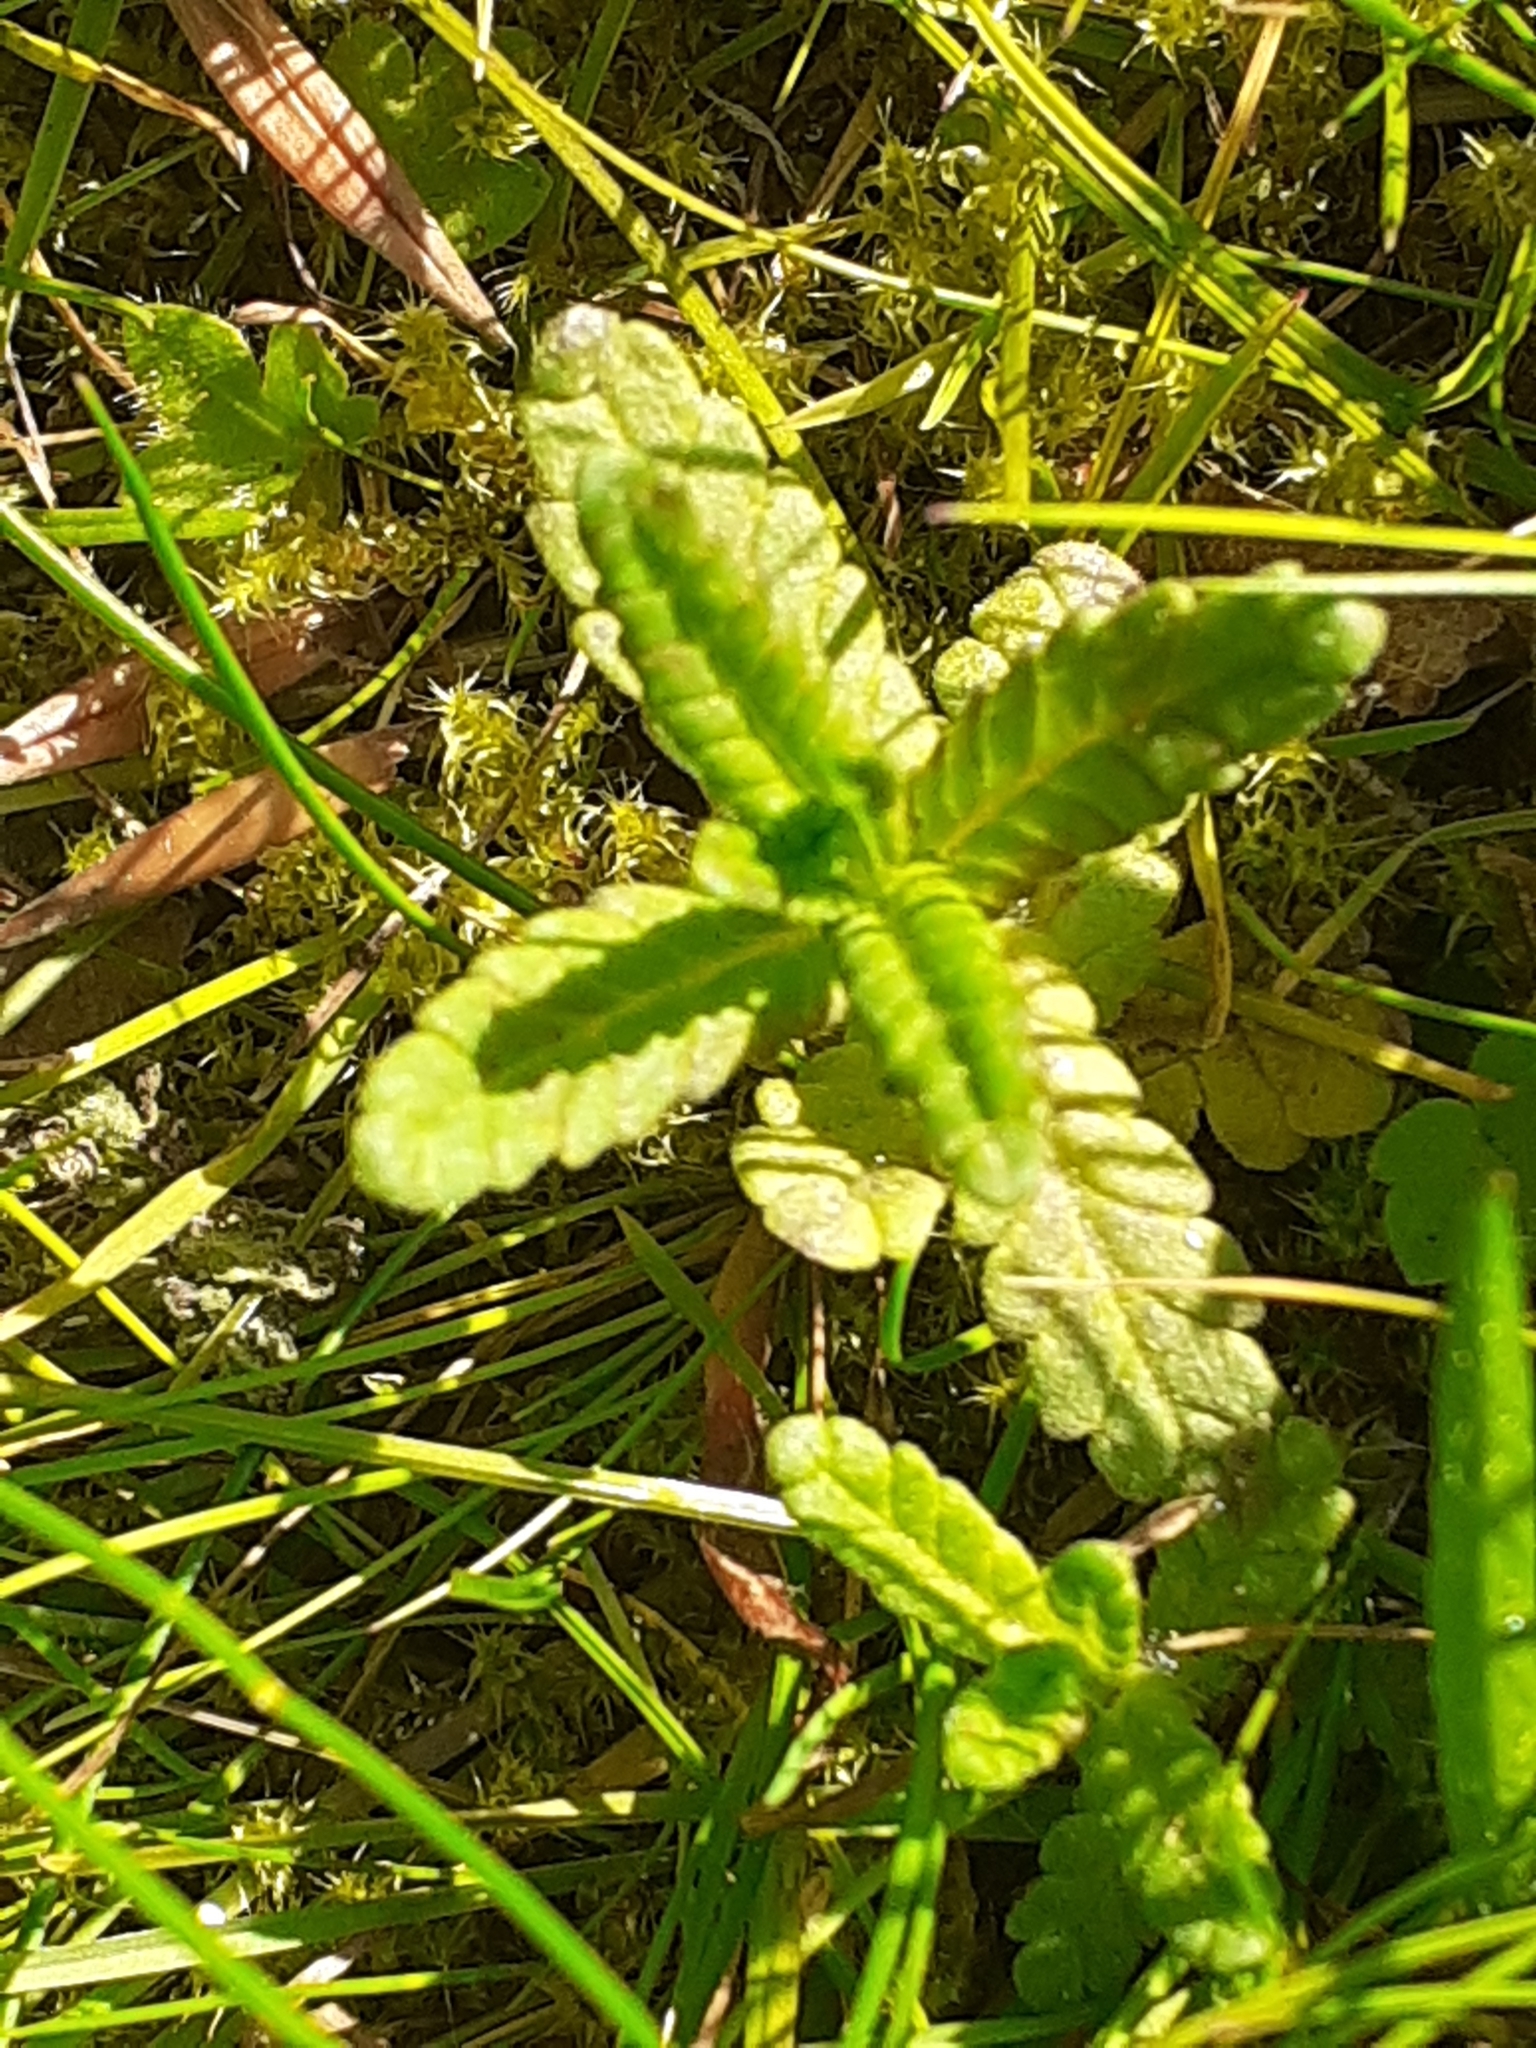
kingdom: Plantae
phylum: Tracheophyta
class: Magnoliopsida
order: Lamiales
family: Orobanchaceae
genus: Rhinanthus
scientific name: Rhinanthus minor
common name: Yellow-rattle
